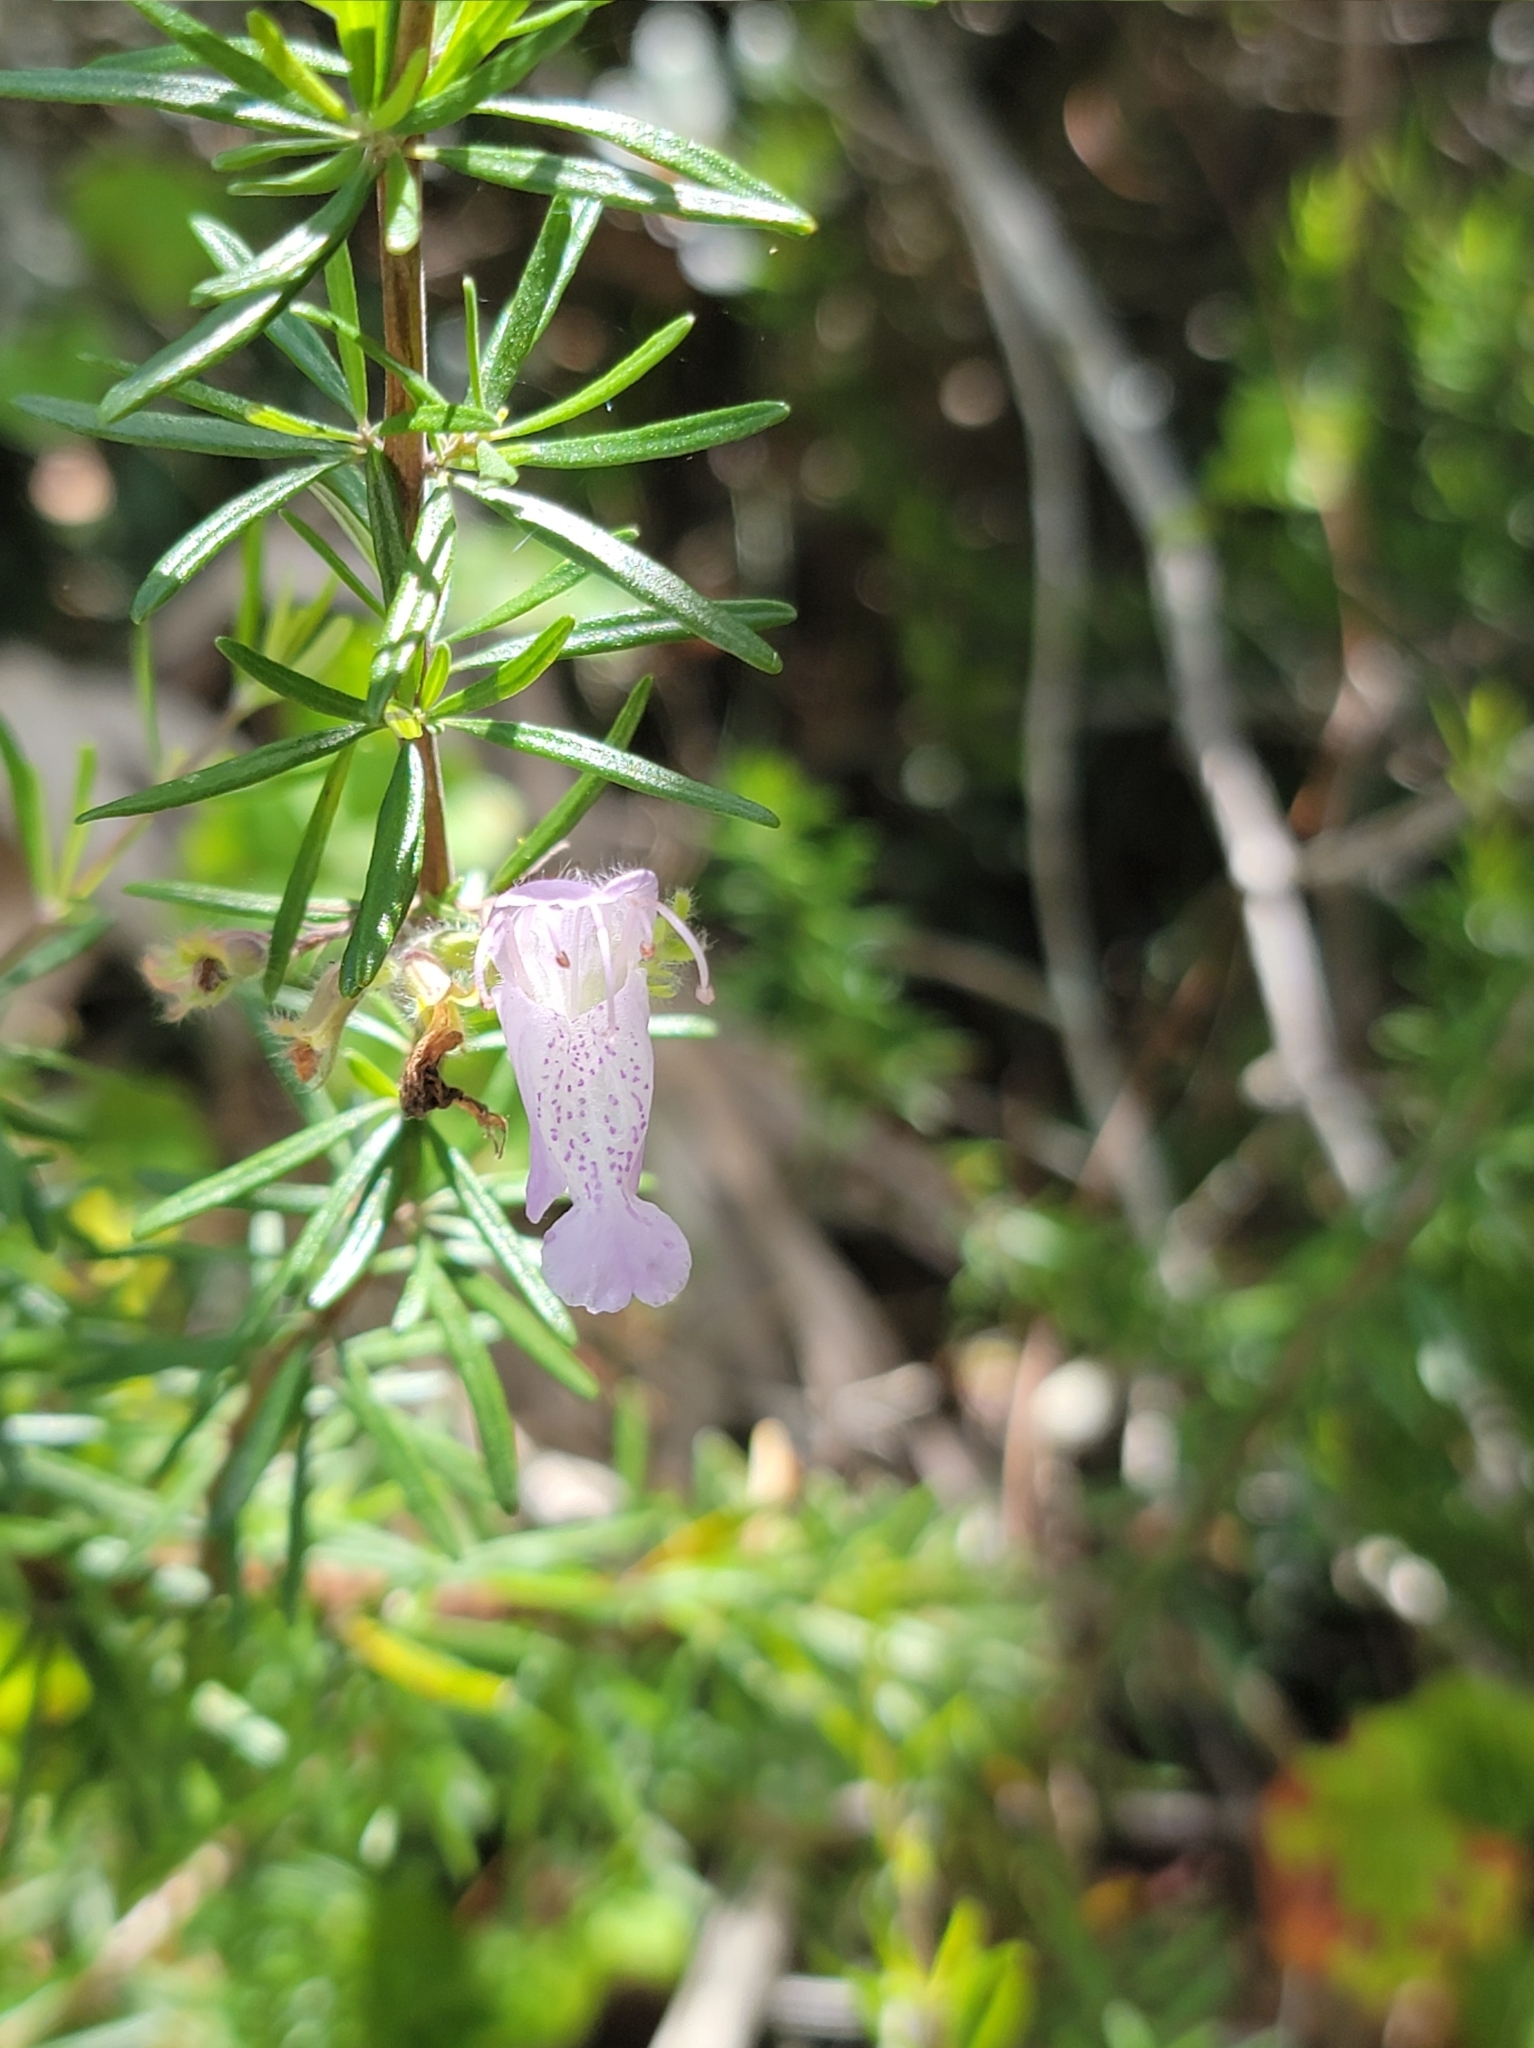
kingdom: Plantae
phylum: Tracheophyta
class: Magnoliopsida
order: Lamiales
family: Lamiaceae
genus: Conradina
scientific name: Conradina grandiflora
